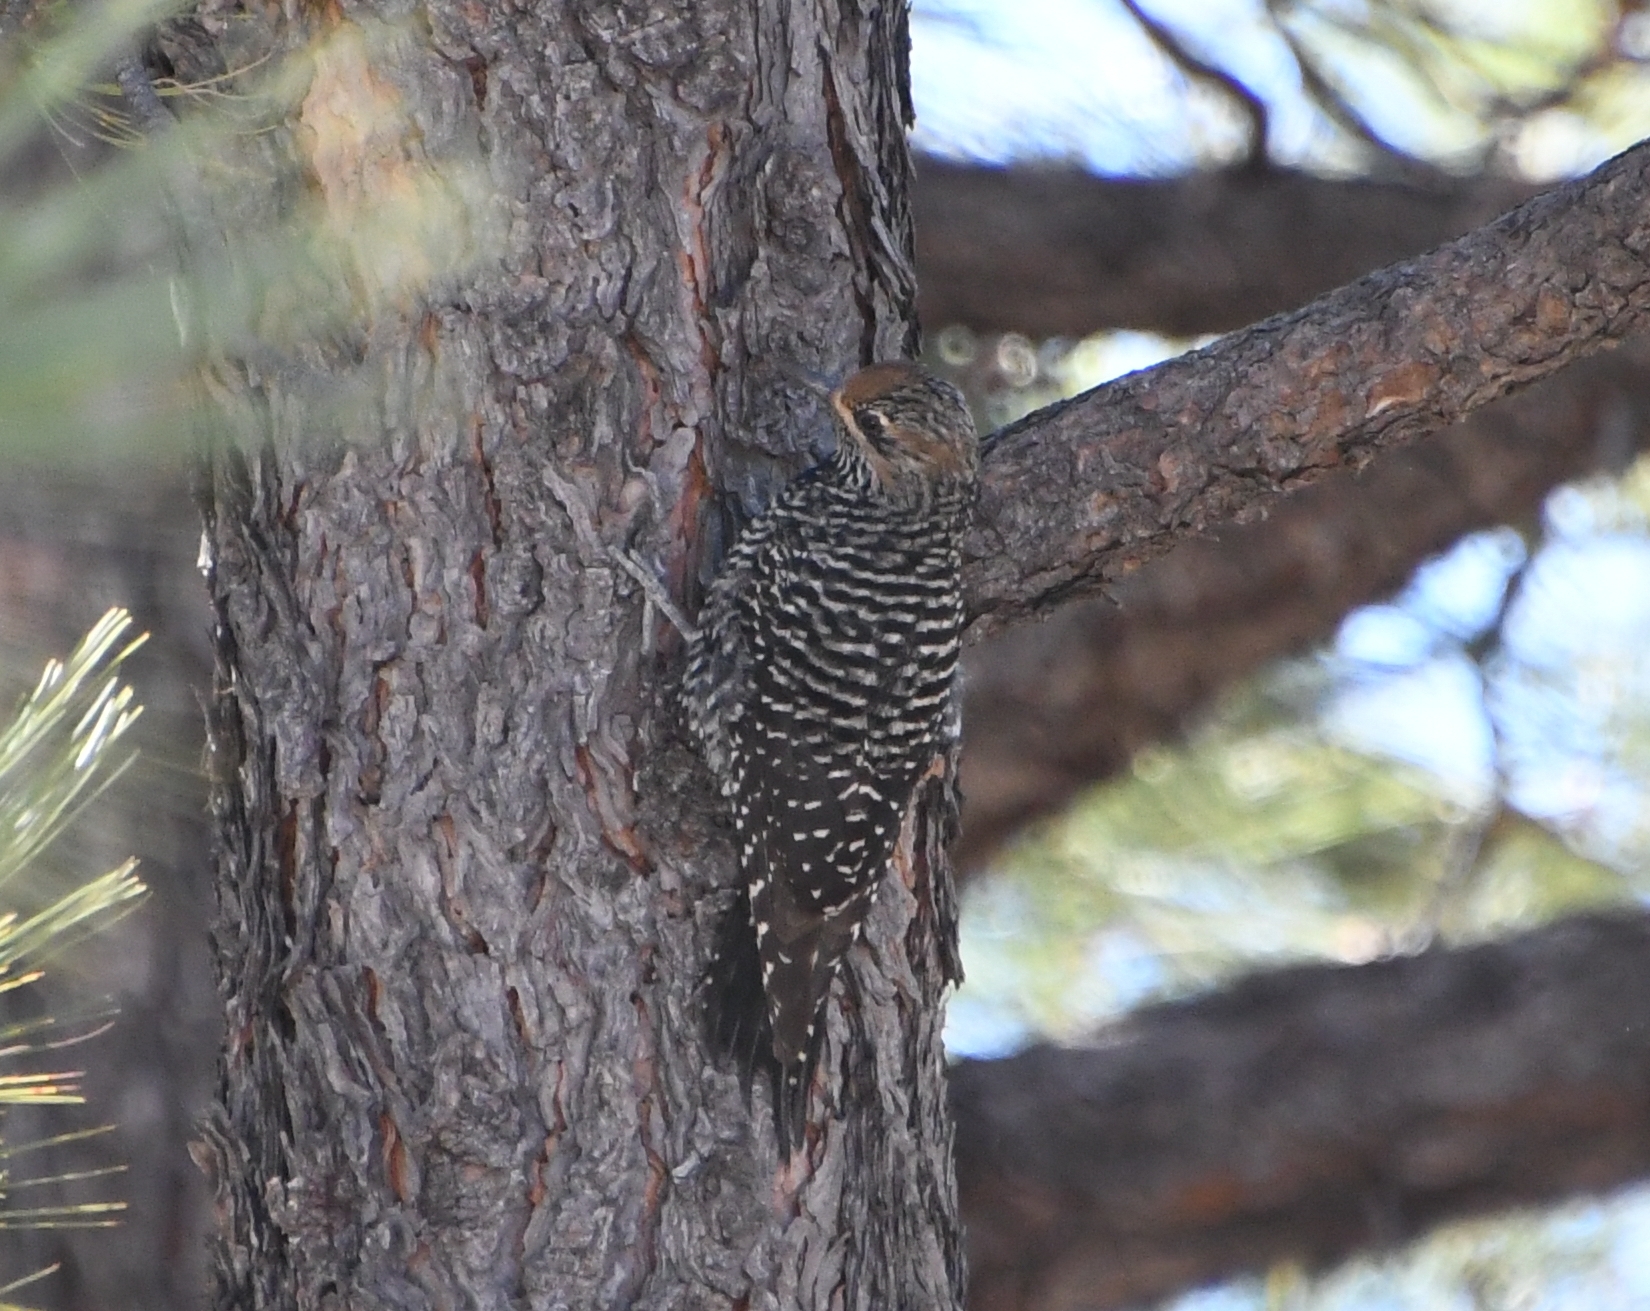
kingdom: Animalia
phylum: Chordata
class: Aves
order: Piciformes
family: Picidae
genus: Sphyrapicus
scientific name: Sphyrapicus thyroideus
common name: Williamson's sapsucker
